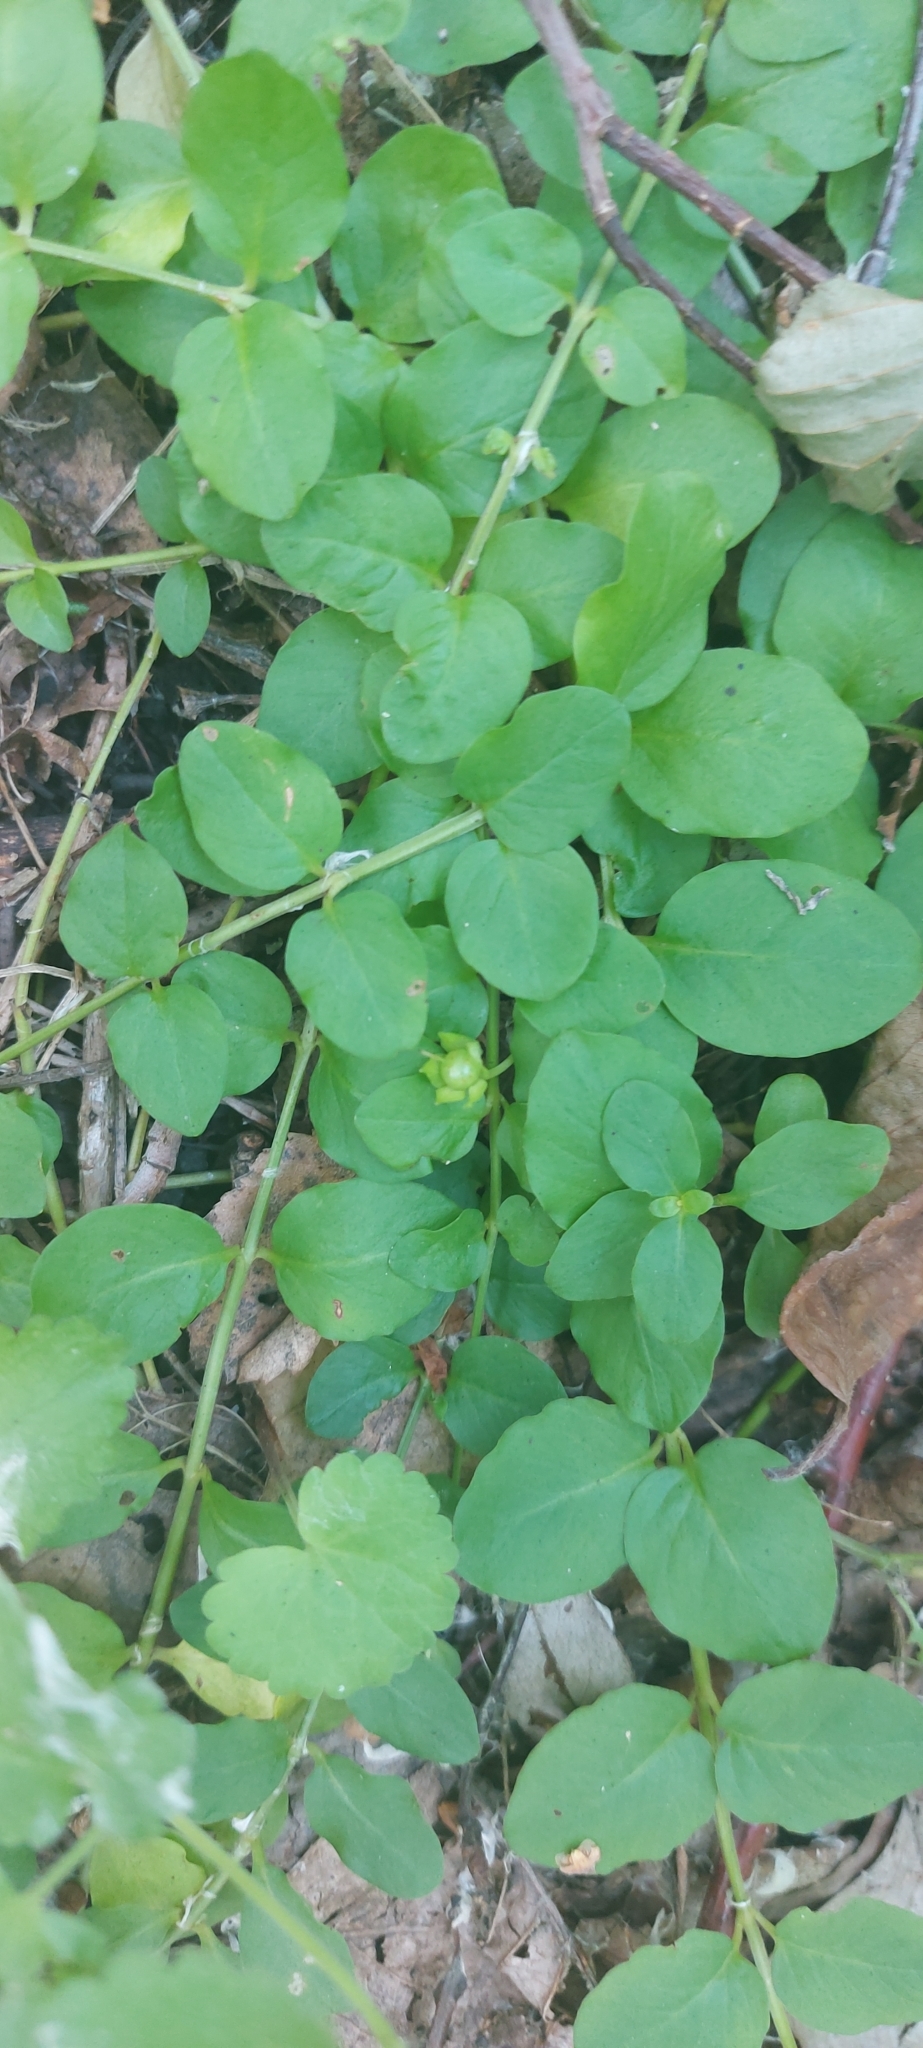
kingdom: Plantae
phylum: Tracheophyta
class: Magnoliopsida
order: Ericales
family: Primulaceae
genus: Lysimachia
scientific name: Lysimachia nummularia
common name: Moneywort
